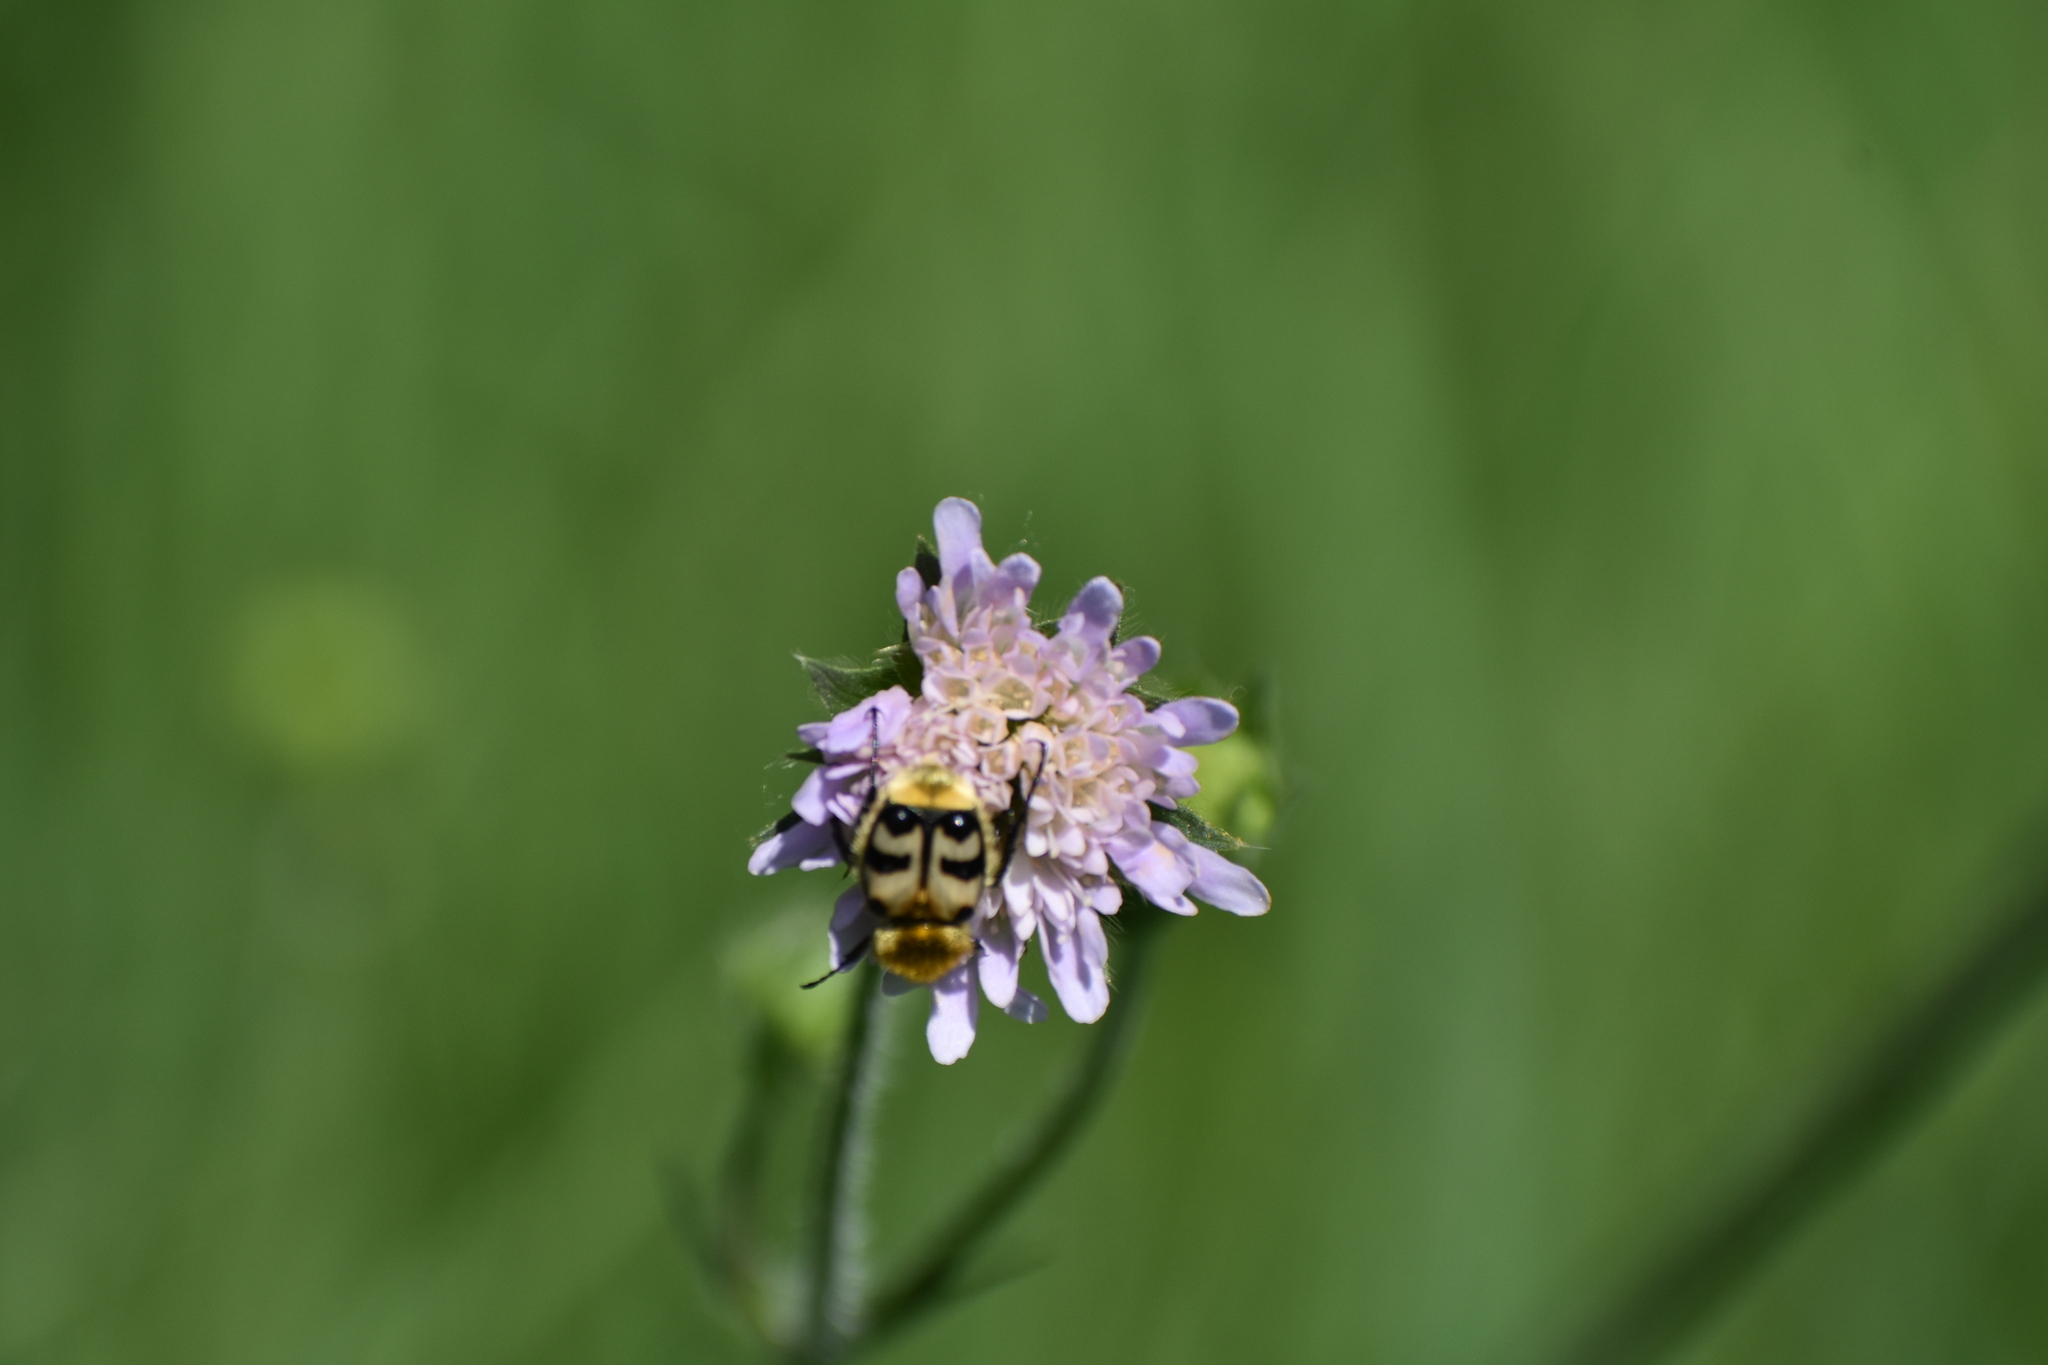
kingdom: Animalia
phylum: Arthropoda
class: Insecta
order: Coleoptera
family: Scarabaeidae
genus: Trichius
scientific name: Trichius fasciatus
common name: Bee beetle
